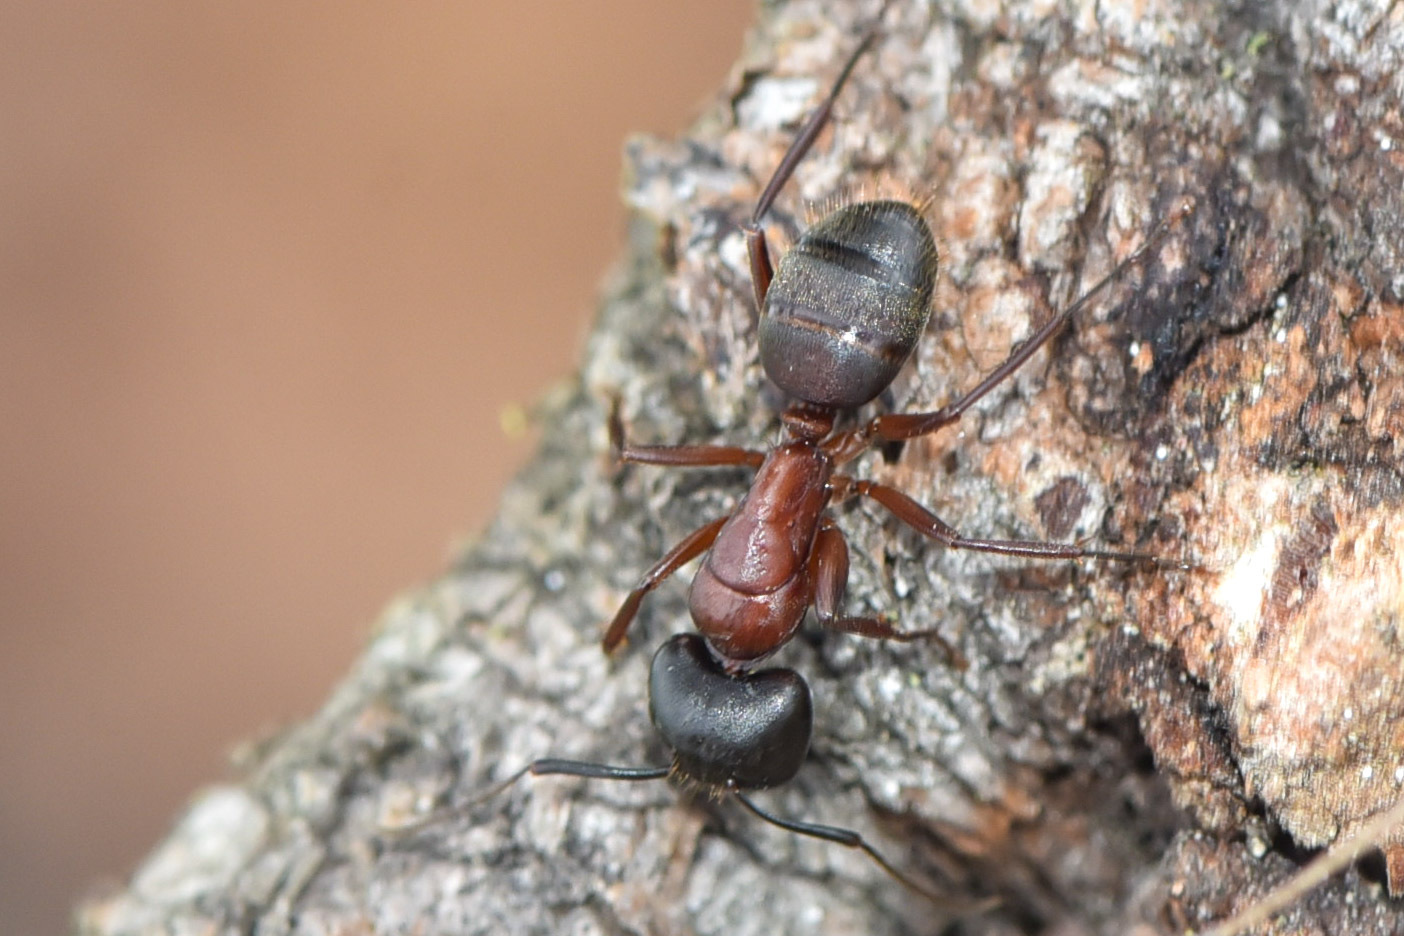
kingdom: Animalia
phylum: Arthropoda
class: Insecta
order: Hymenoptera
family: Formicidae
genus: Camponotus
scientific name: Camponotus vicinus
